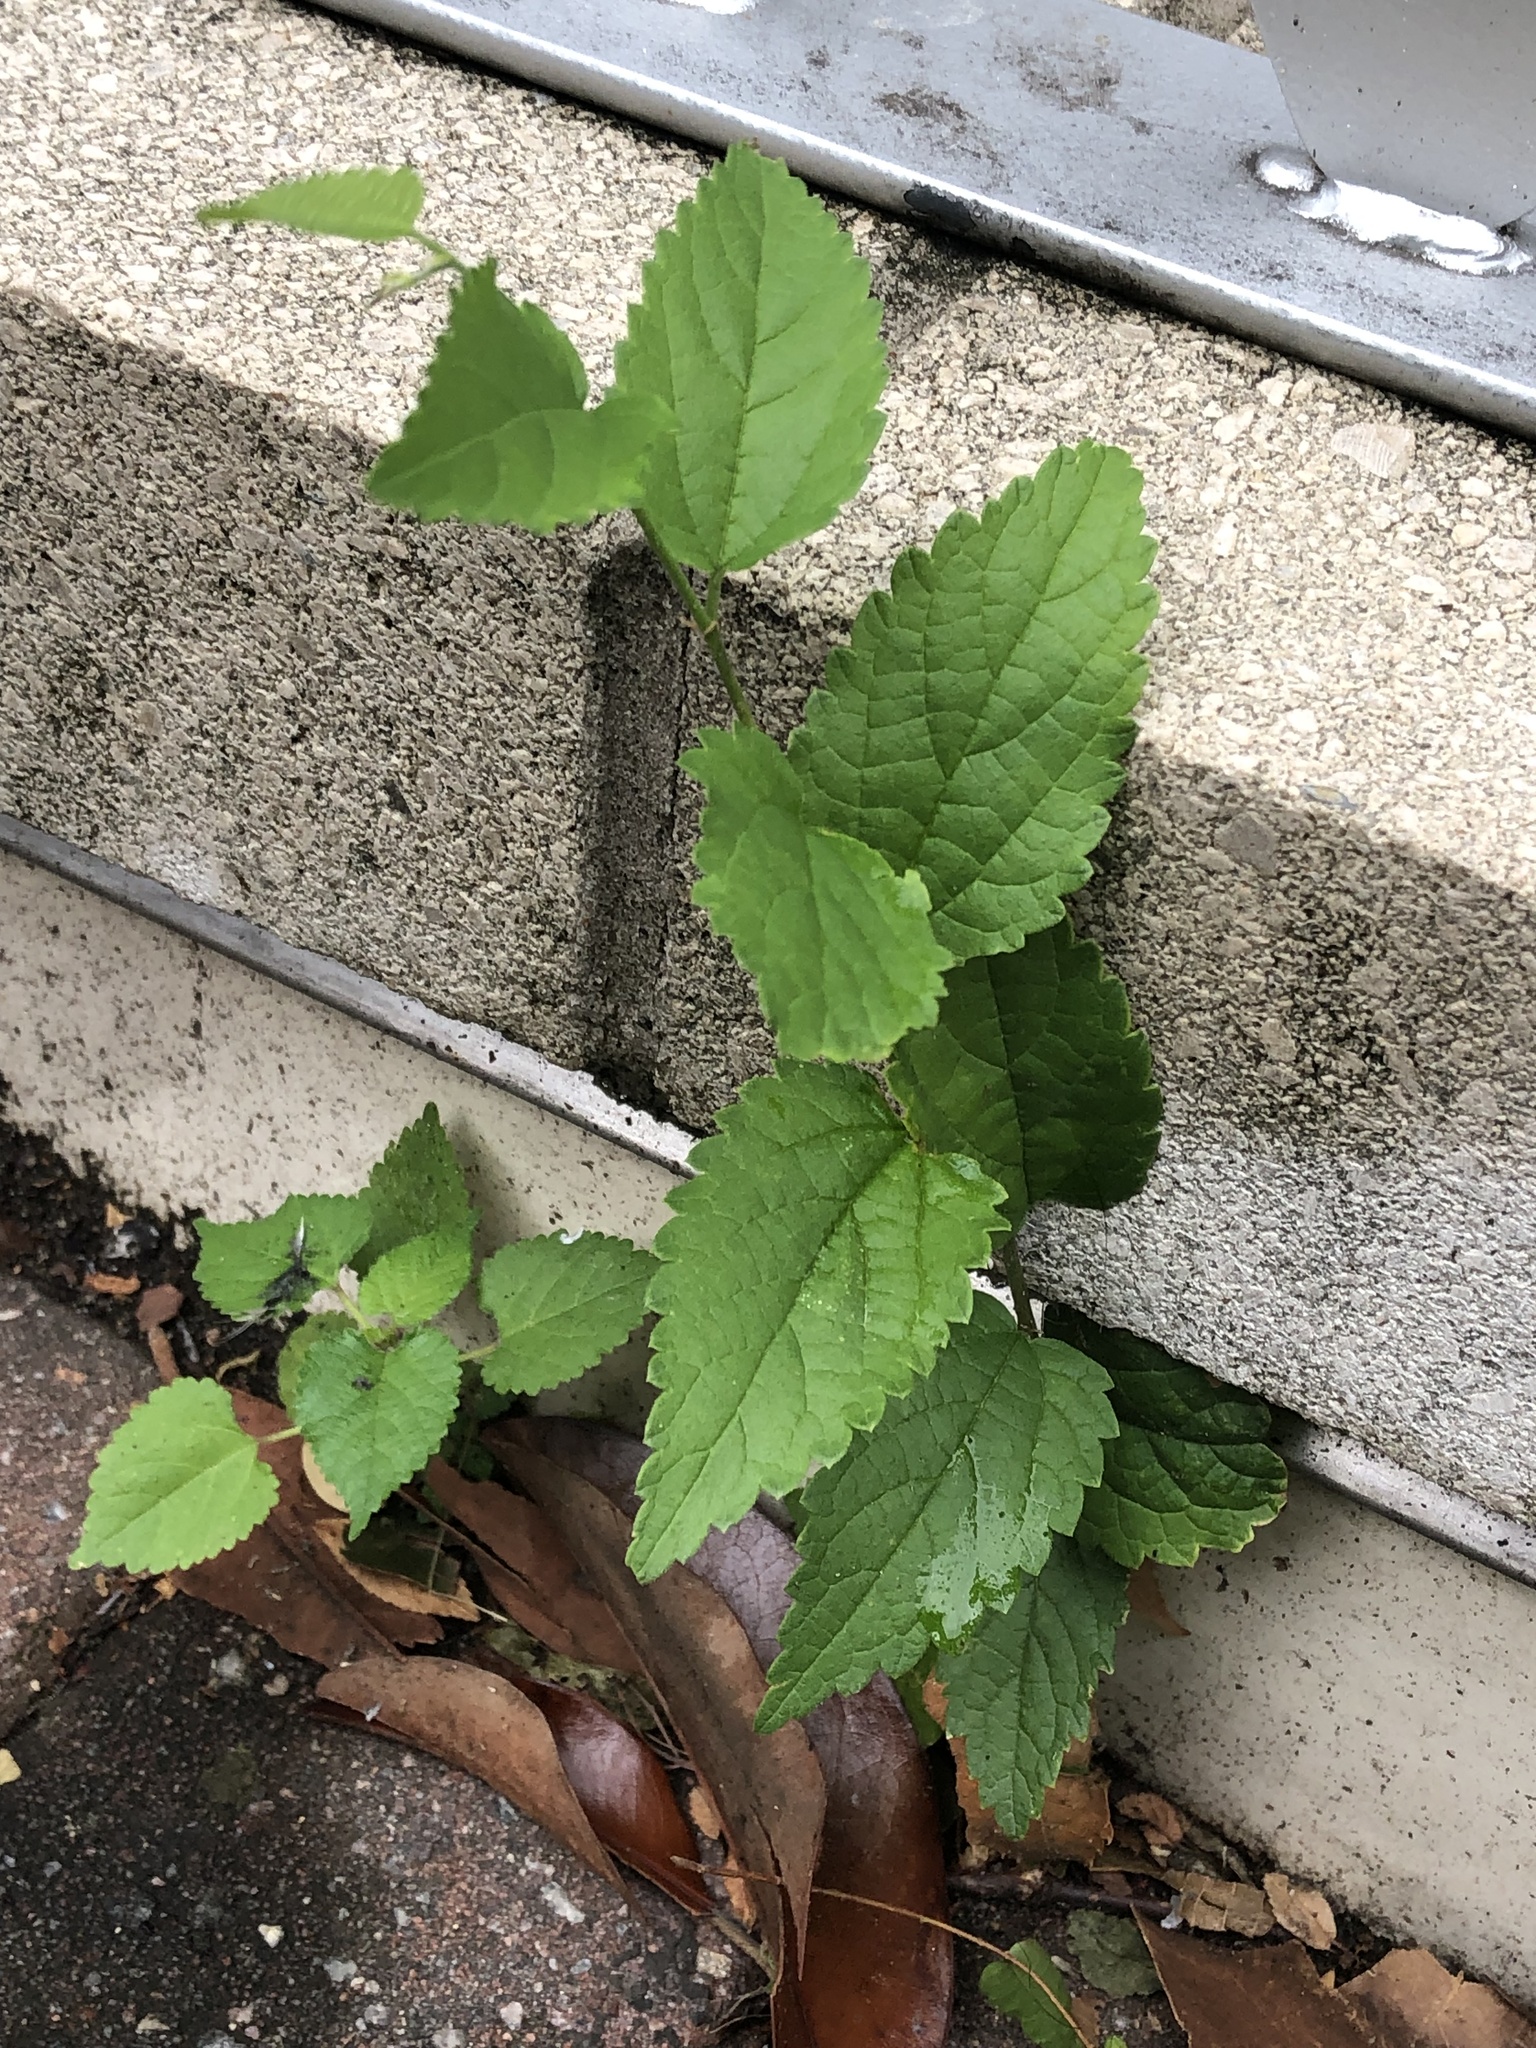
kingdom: Plantae
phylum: Tracheophyta
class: Magnoliopsida
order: Rosales
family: Moraceae
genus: Fatoua
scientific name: Fatoua villosa
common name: Hairy crabweed
